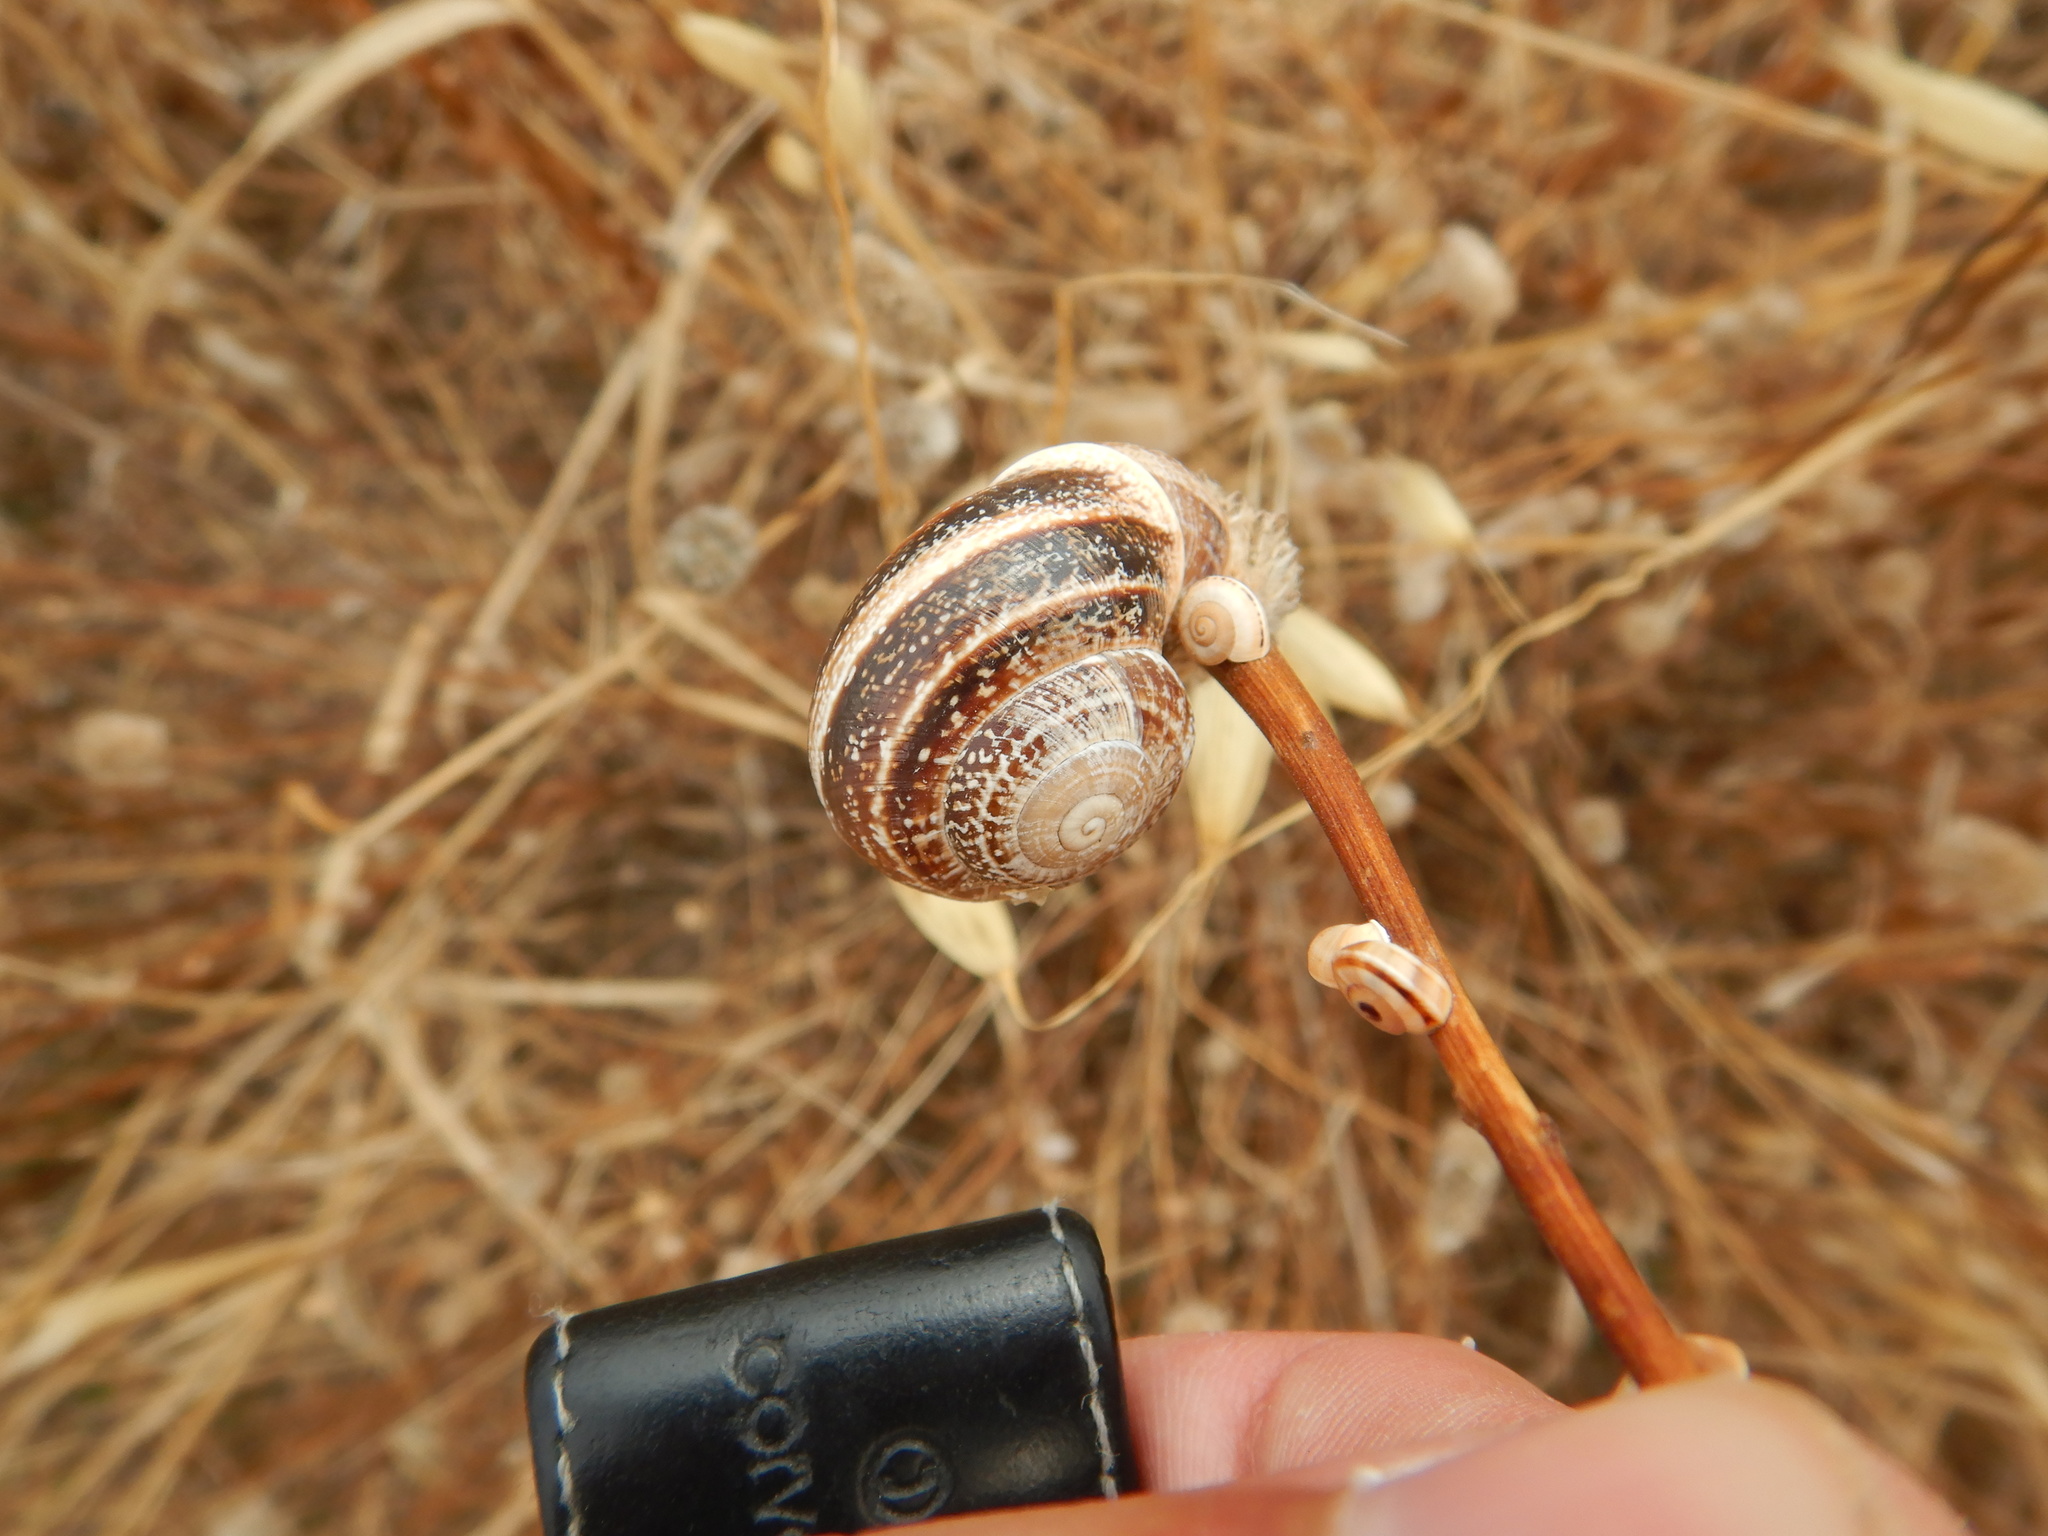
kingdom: Animalia
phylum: Mollusca
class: Gastropoda
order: Stylommatophora
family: Helicidae
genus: Otala
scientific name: Otala lactea
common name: Milk snail
